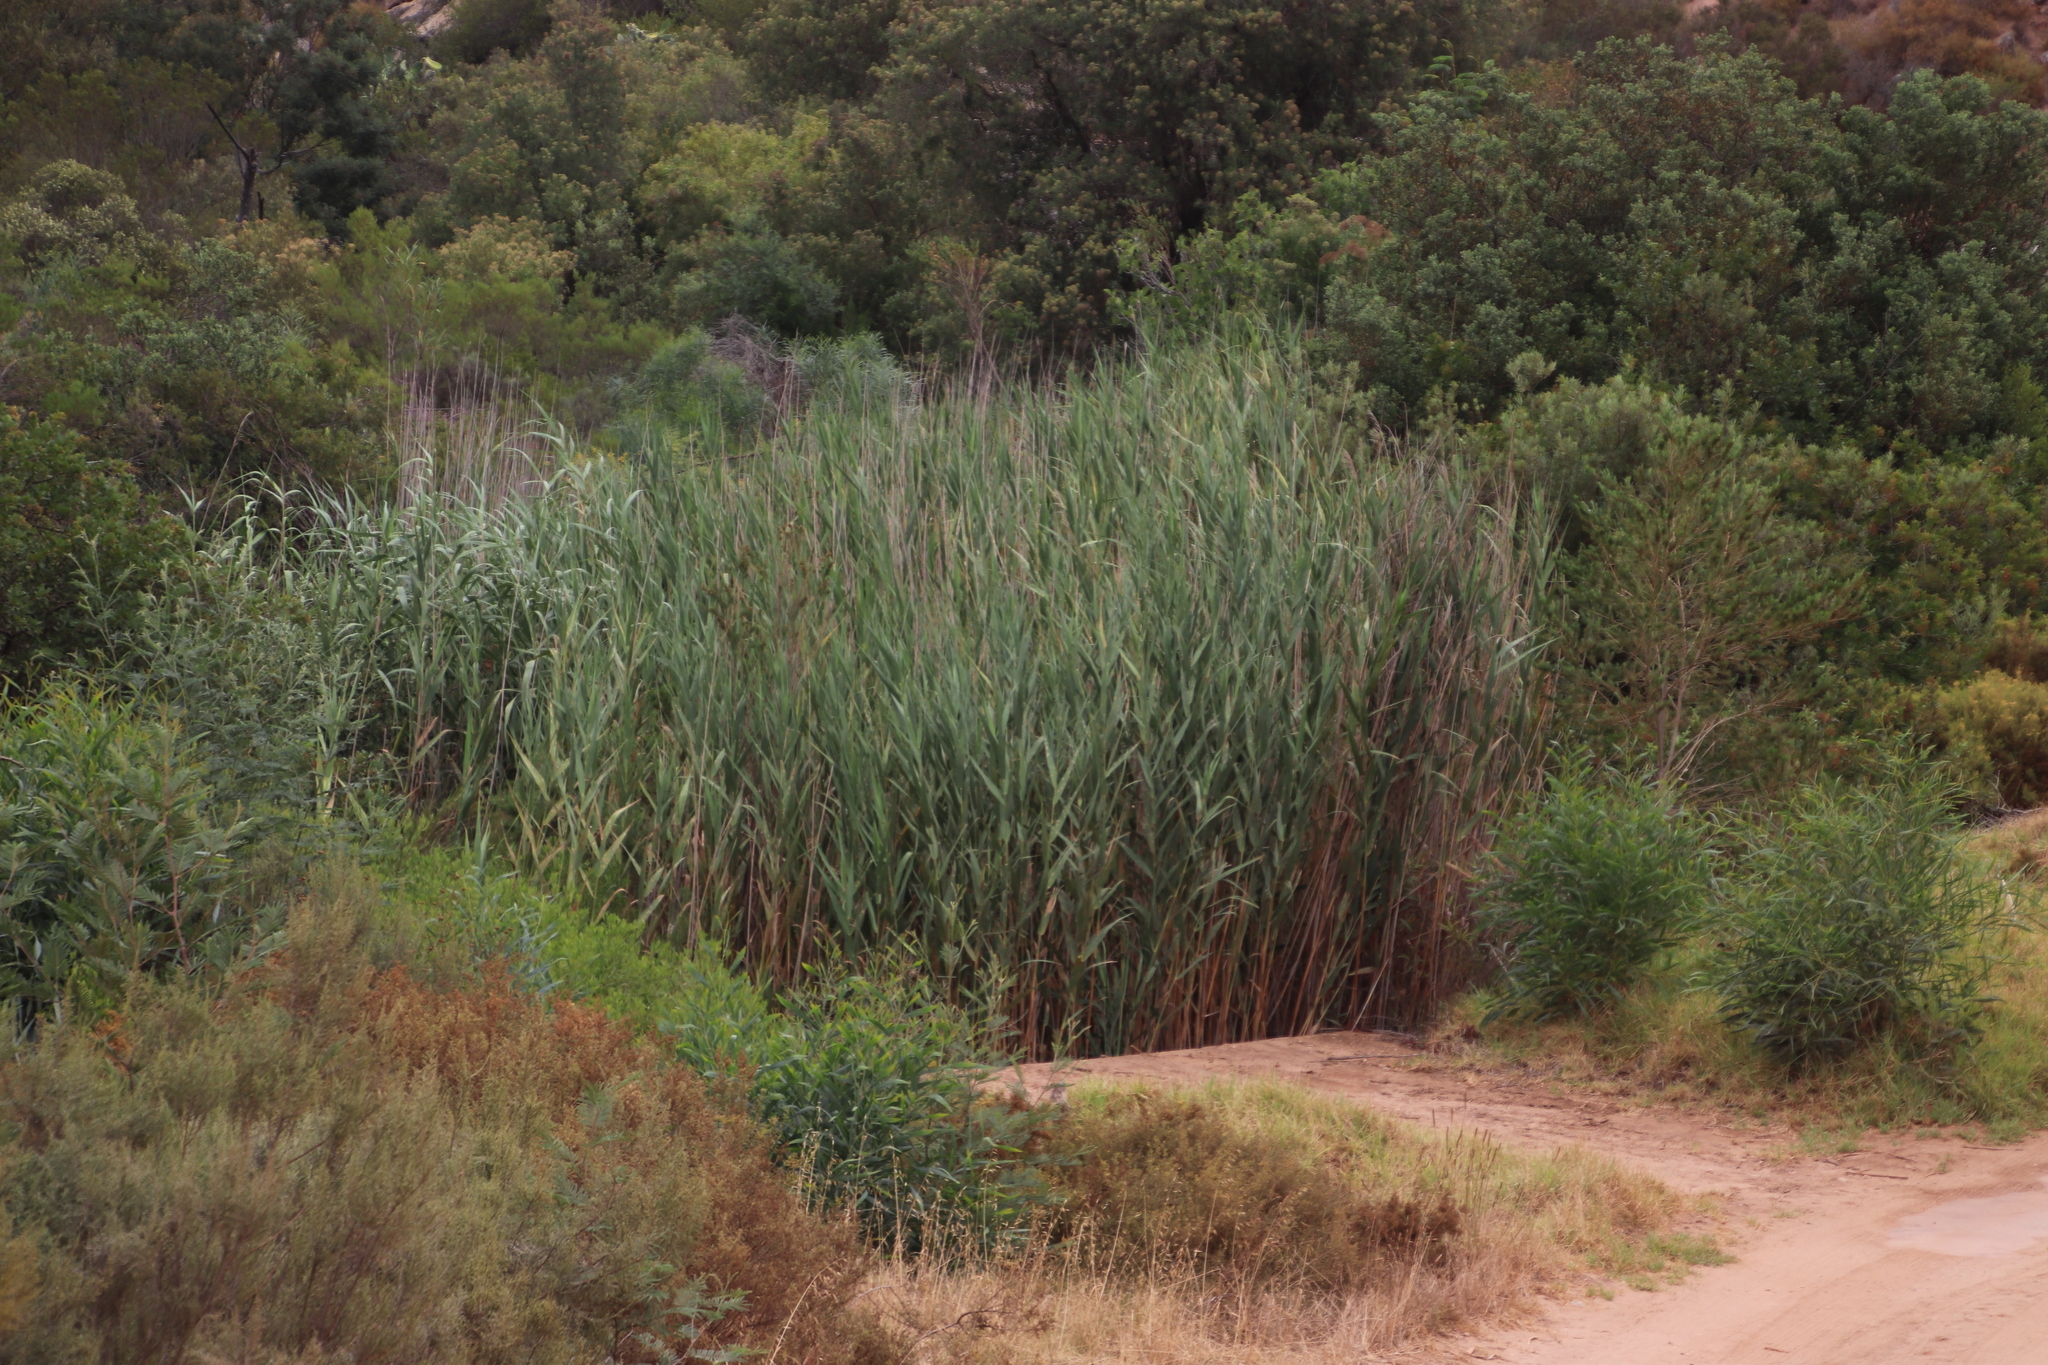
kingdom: Plantae
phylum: Tracheophyta
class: Liliopsida
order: Poales
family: Poaceae
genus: Phragmites
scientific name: Phragmites australis
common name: Common reed
